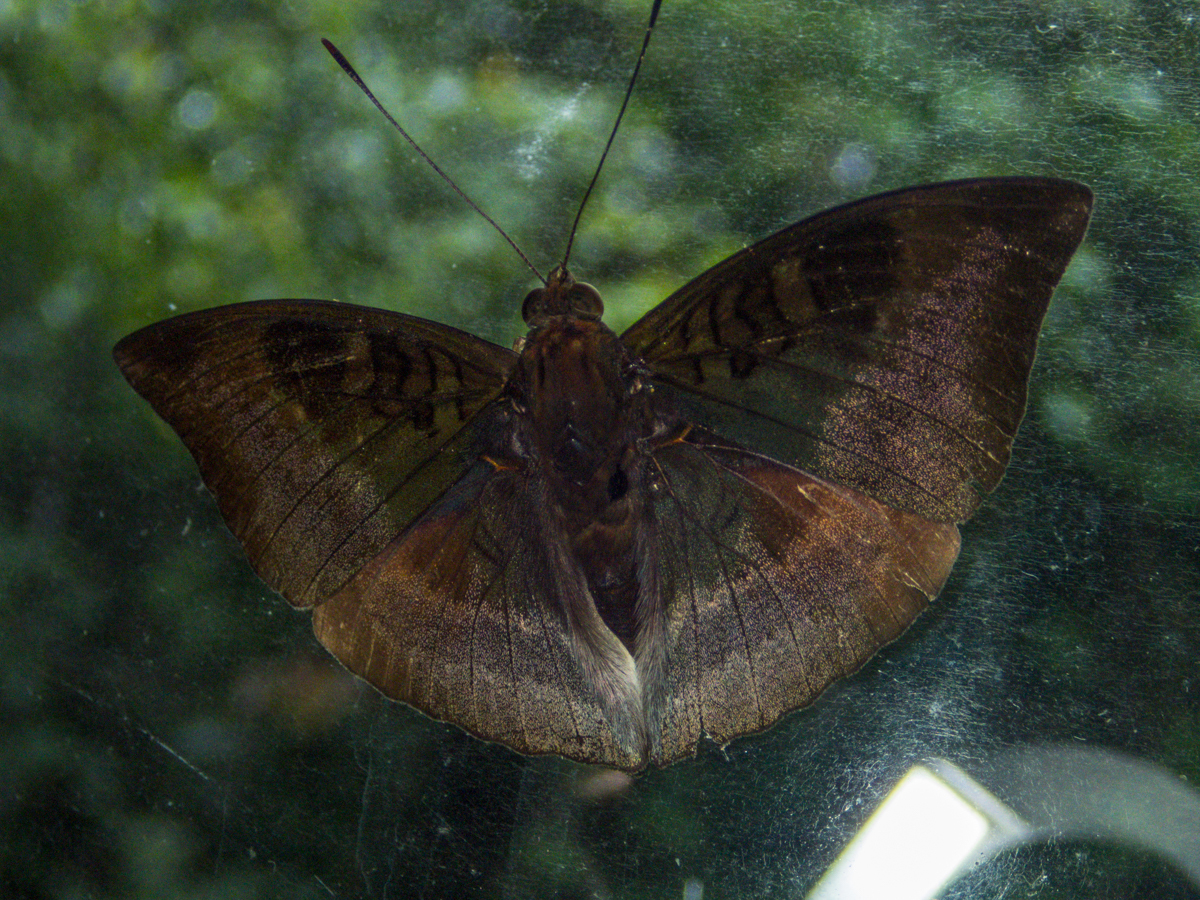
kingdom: Animalia
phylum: Arthropoda
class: Insecta
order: Lepidoptera
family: Nymphalidae
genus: Euthalia
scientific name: Euthalia monina
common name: Powdered baron
